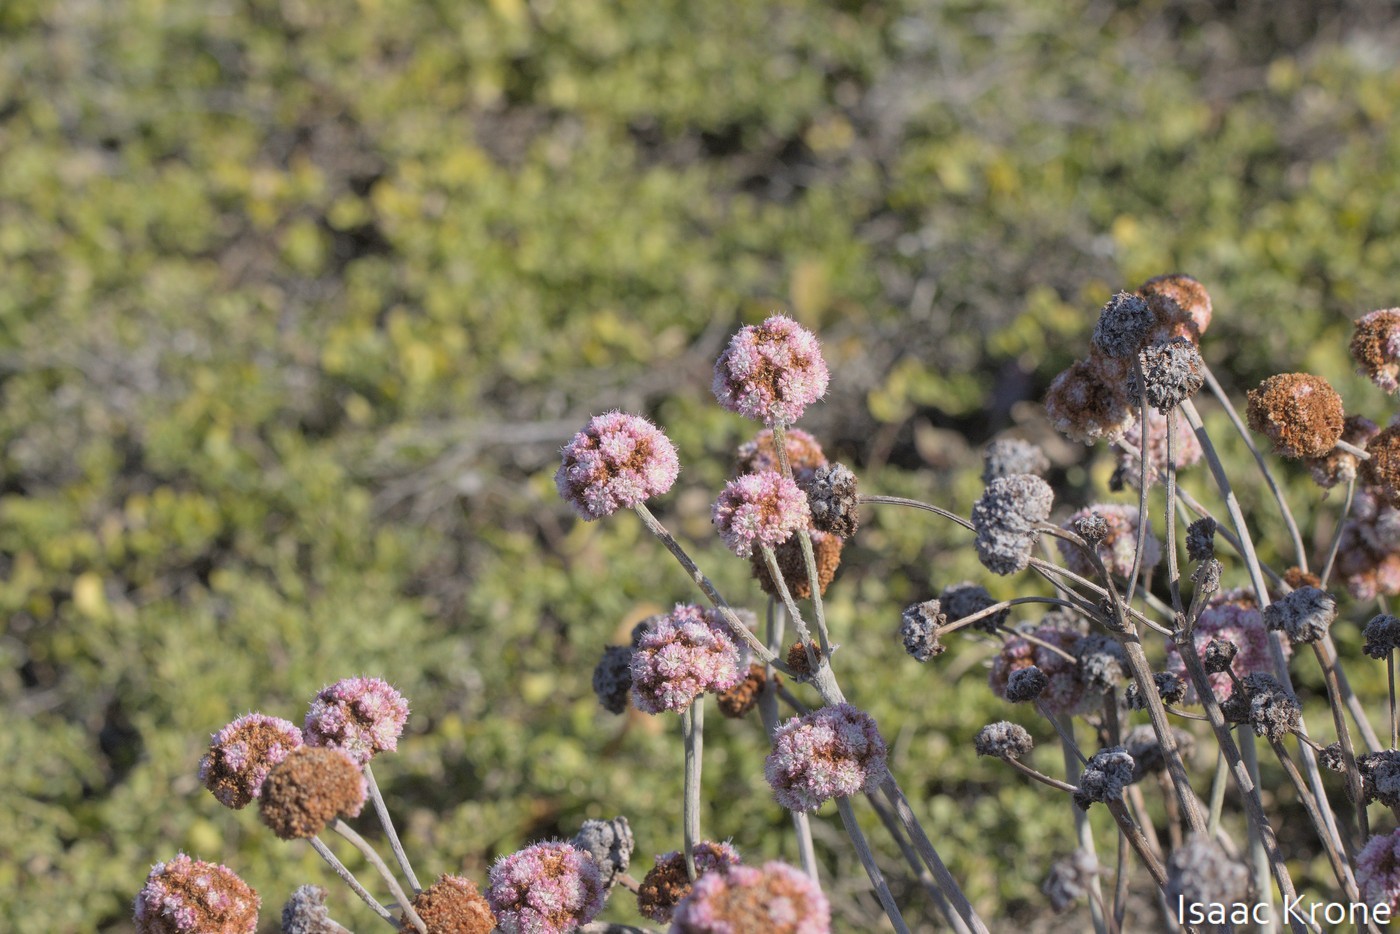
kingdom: Plantae
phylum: Tracheophyta
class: Magnoliopsida
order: Caryophyllales
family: Polygonaceae
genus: Eriogonum
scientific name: Eriogonum latifolium
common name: Seaside wild buckwheat
